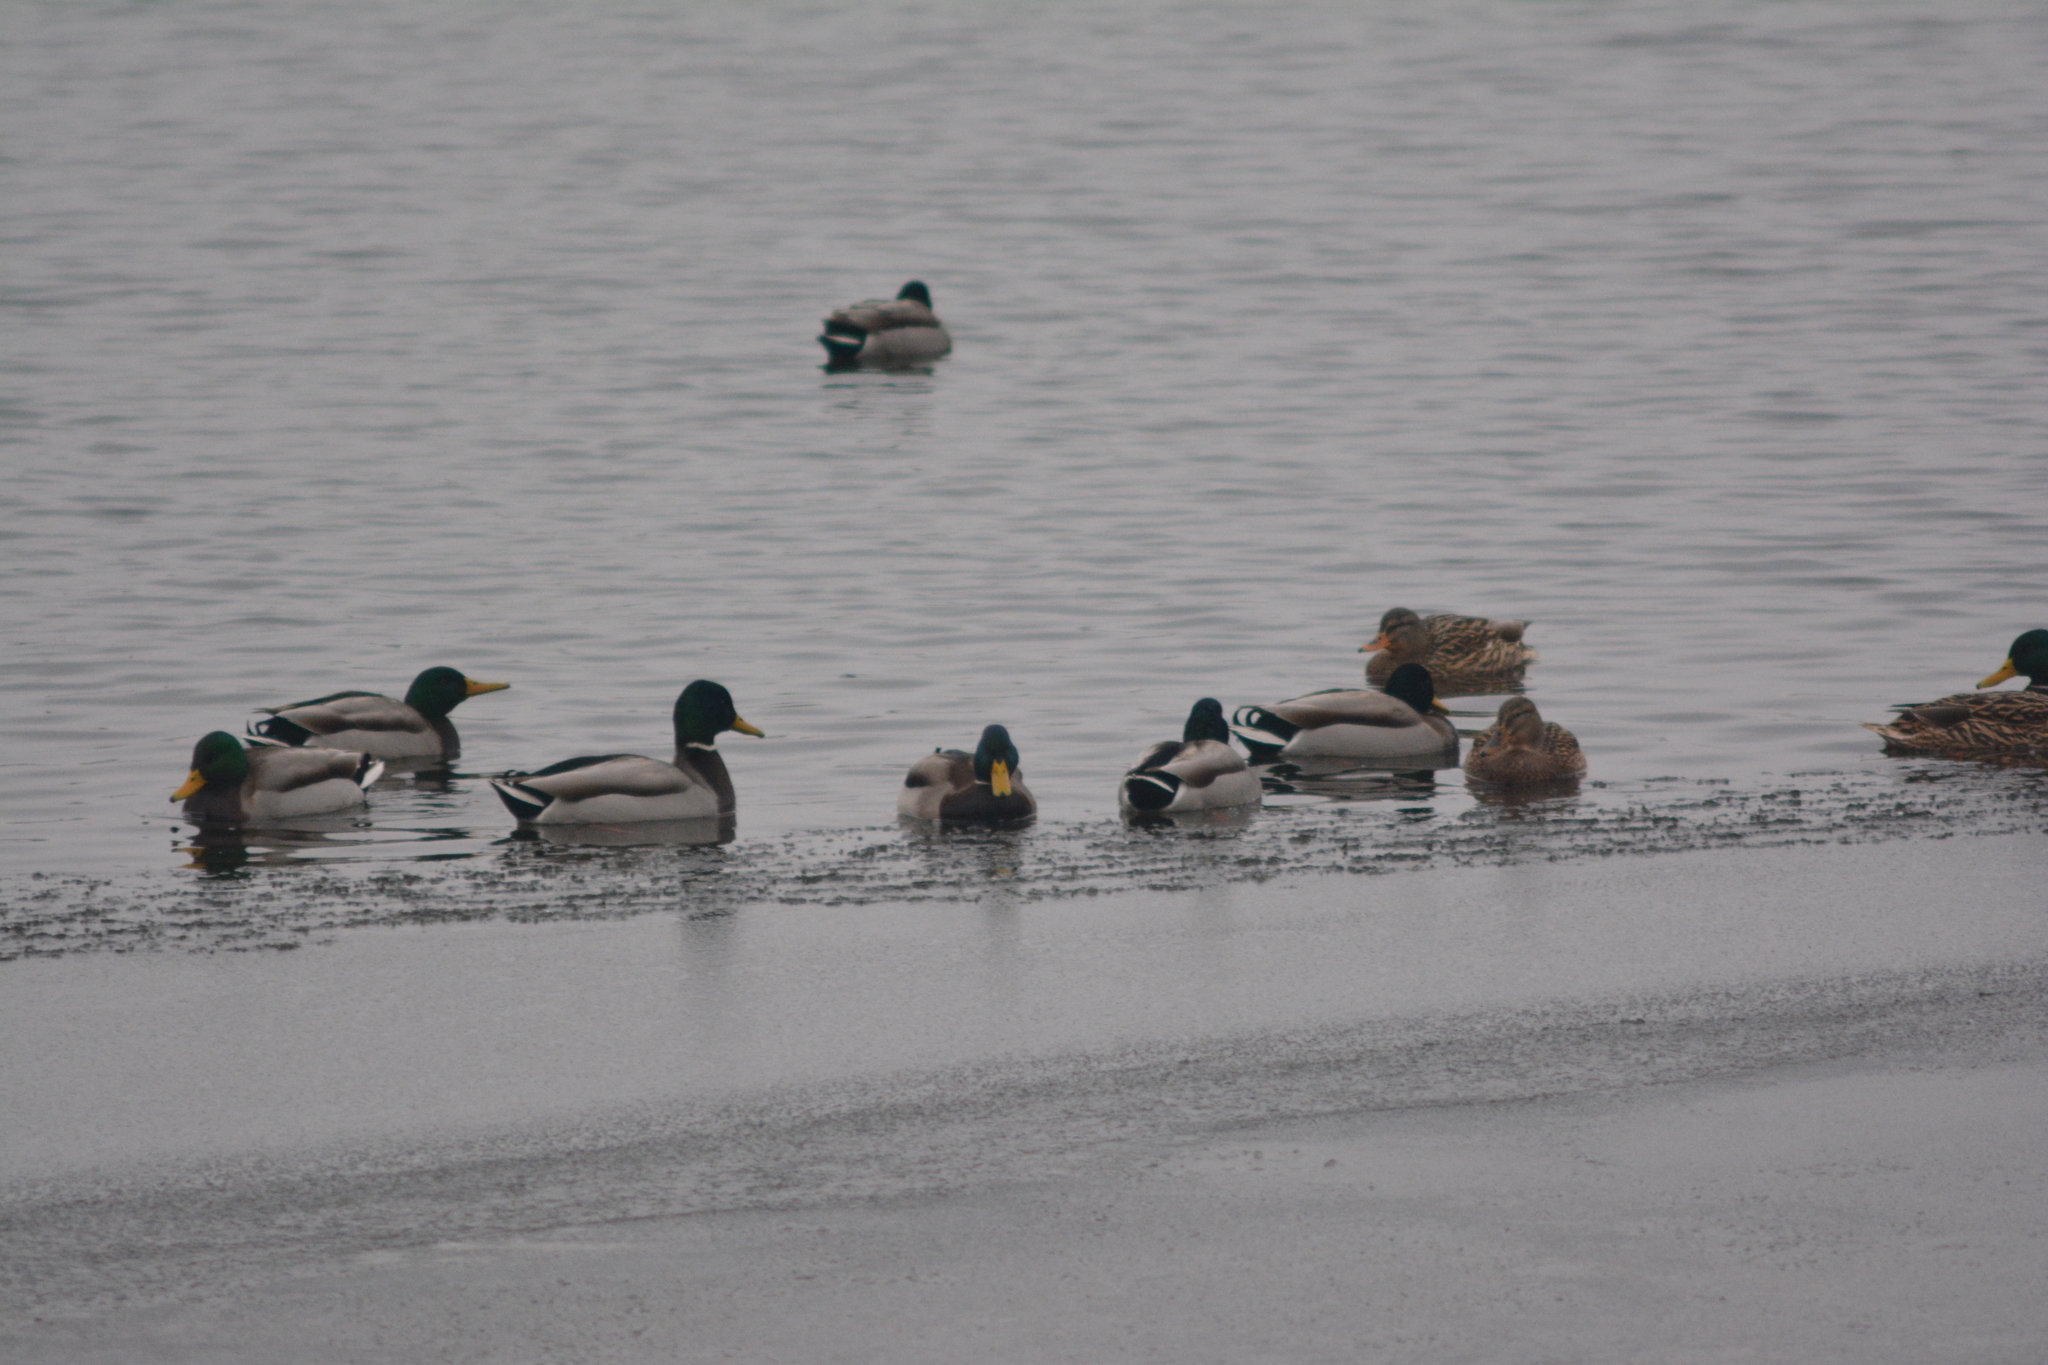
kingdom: Animalia
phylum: Chordata
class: Aves
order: Anseriformes
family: Anatidae
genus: Anas
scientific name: Anas platyrhynchos
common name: Mallard
